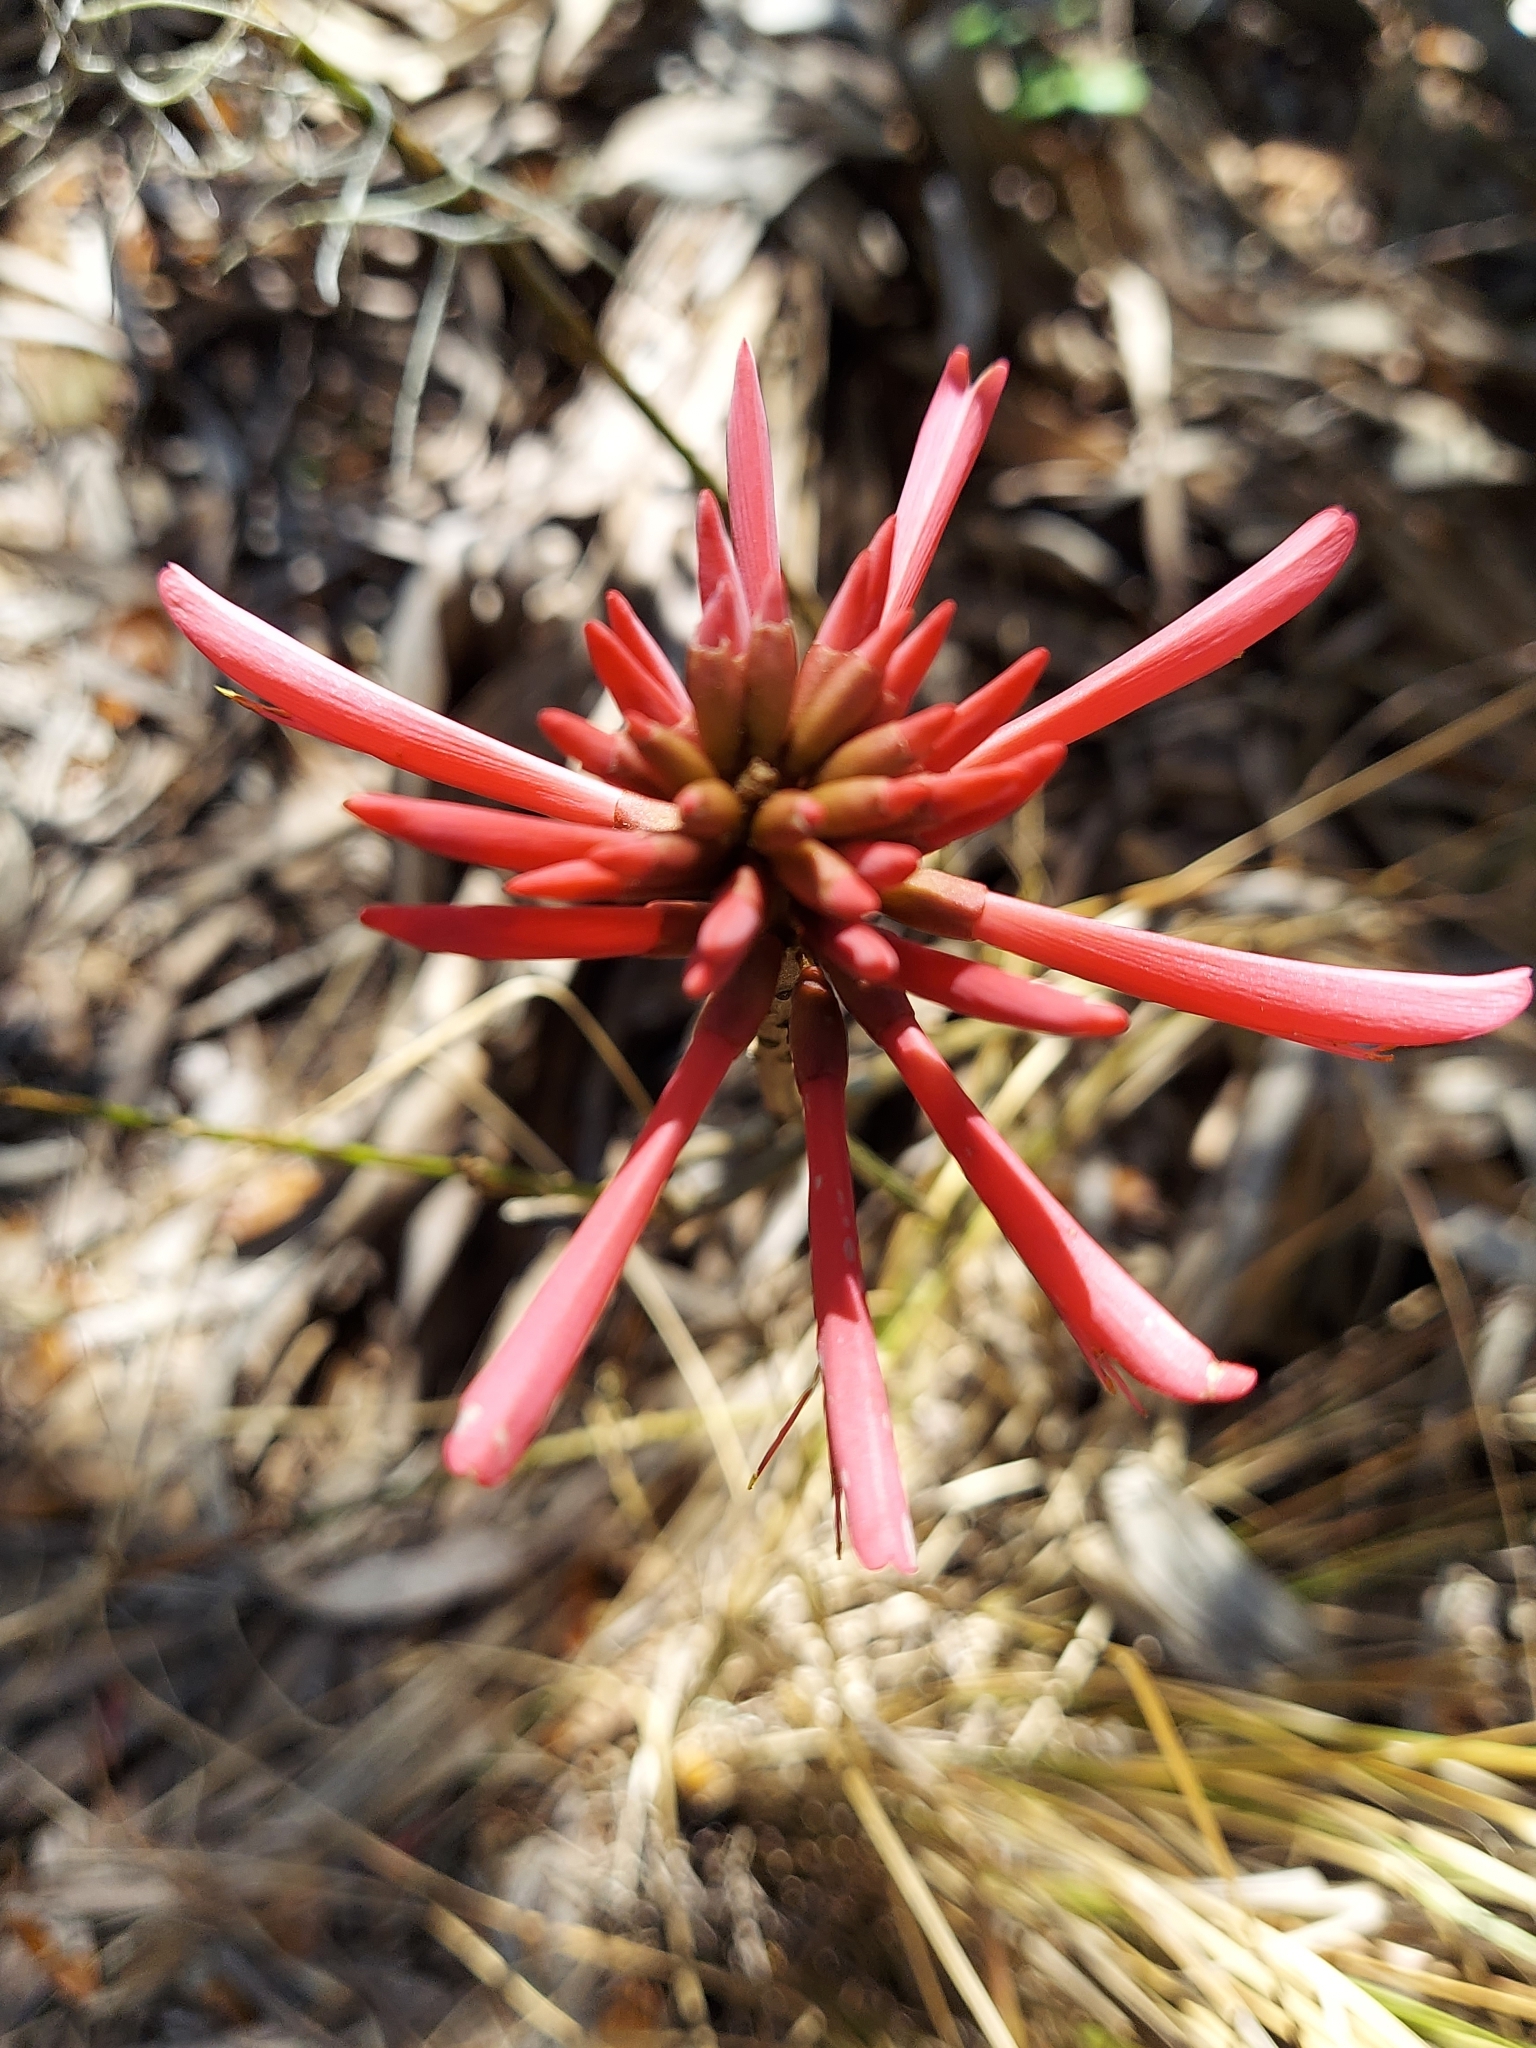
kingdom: Plantae
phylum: Tracheophyta
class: Magnoliopsida
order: Fabales
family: Fabaceae
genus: Erythrina
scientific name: Erythrina herbacea
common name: Coral-bean
